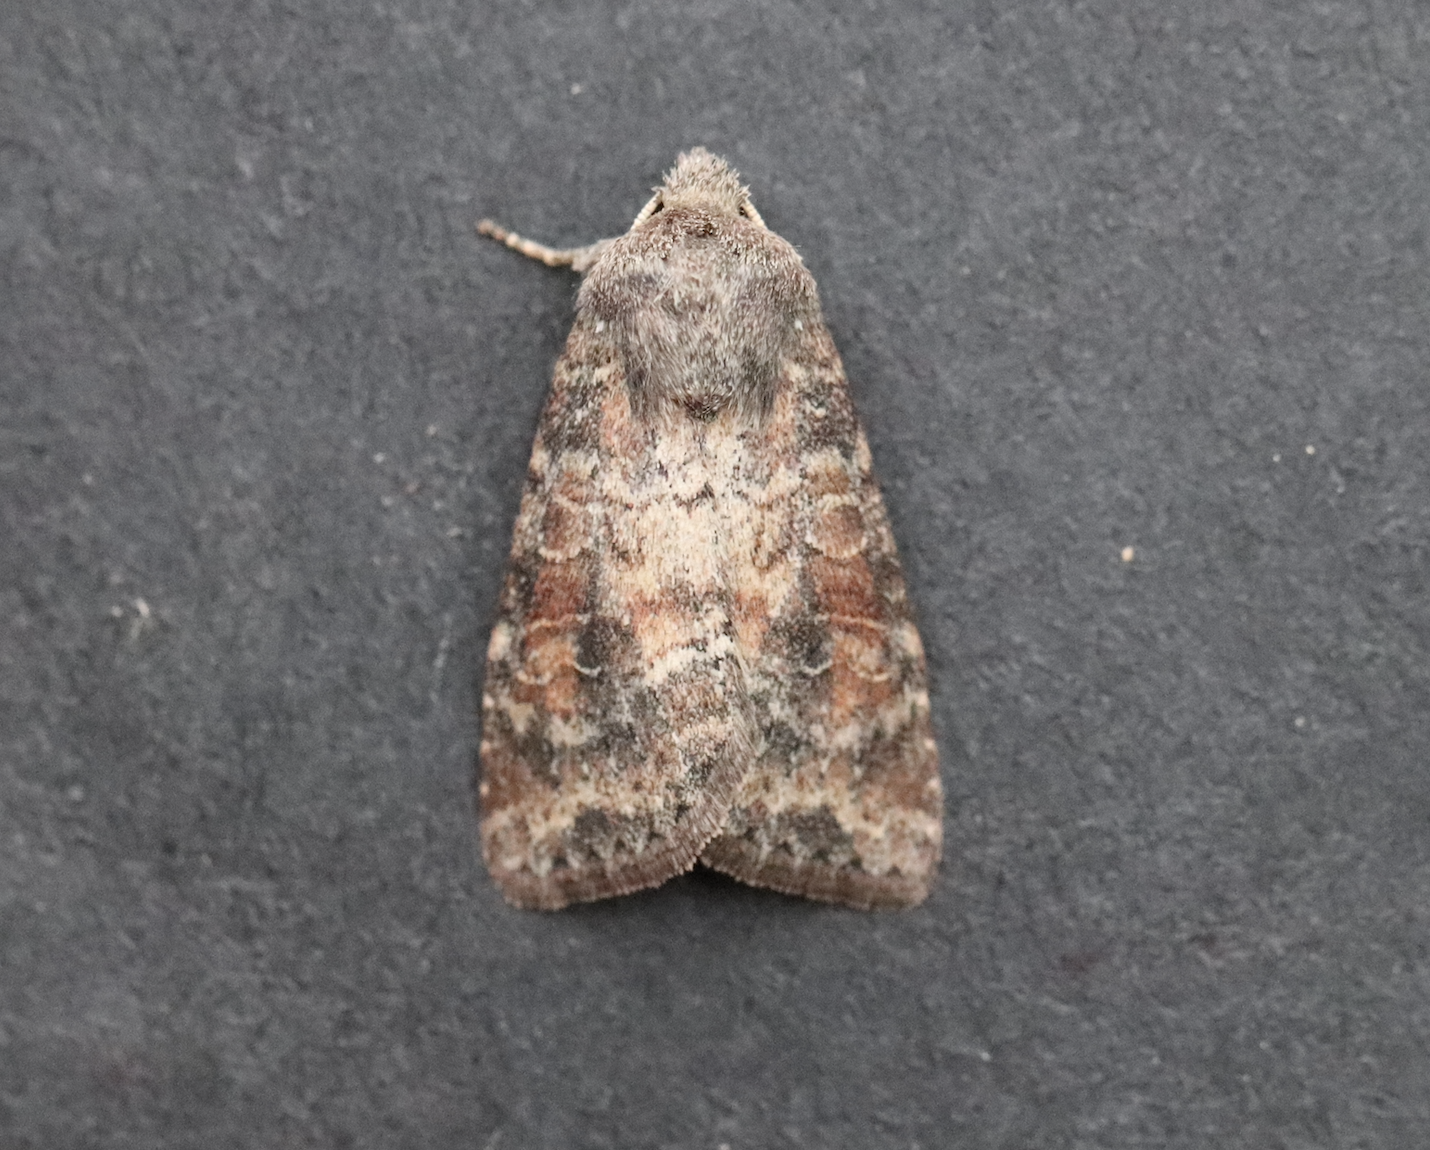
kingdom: Animalia
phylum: Arthropoda
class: Insecta
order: Lepidoptera
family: Noctuidae
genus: Parastichtis
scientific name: Parastichtis suspecta
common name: Suspected
